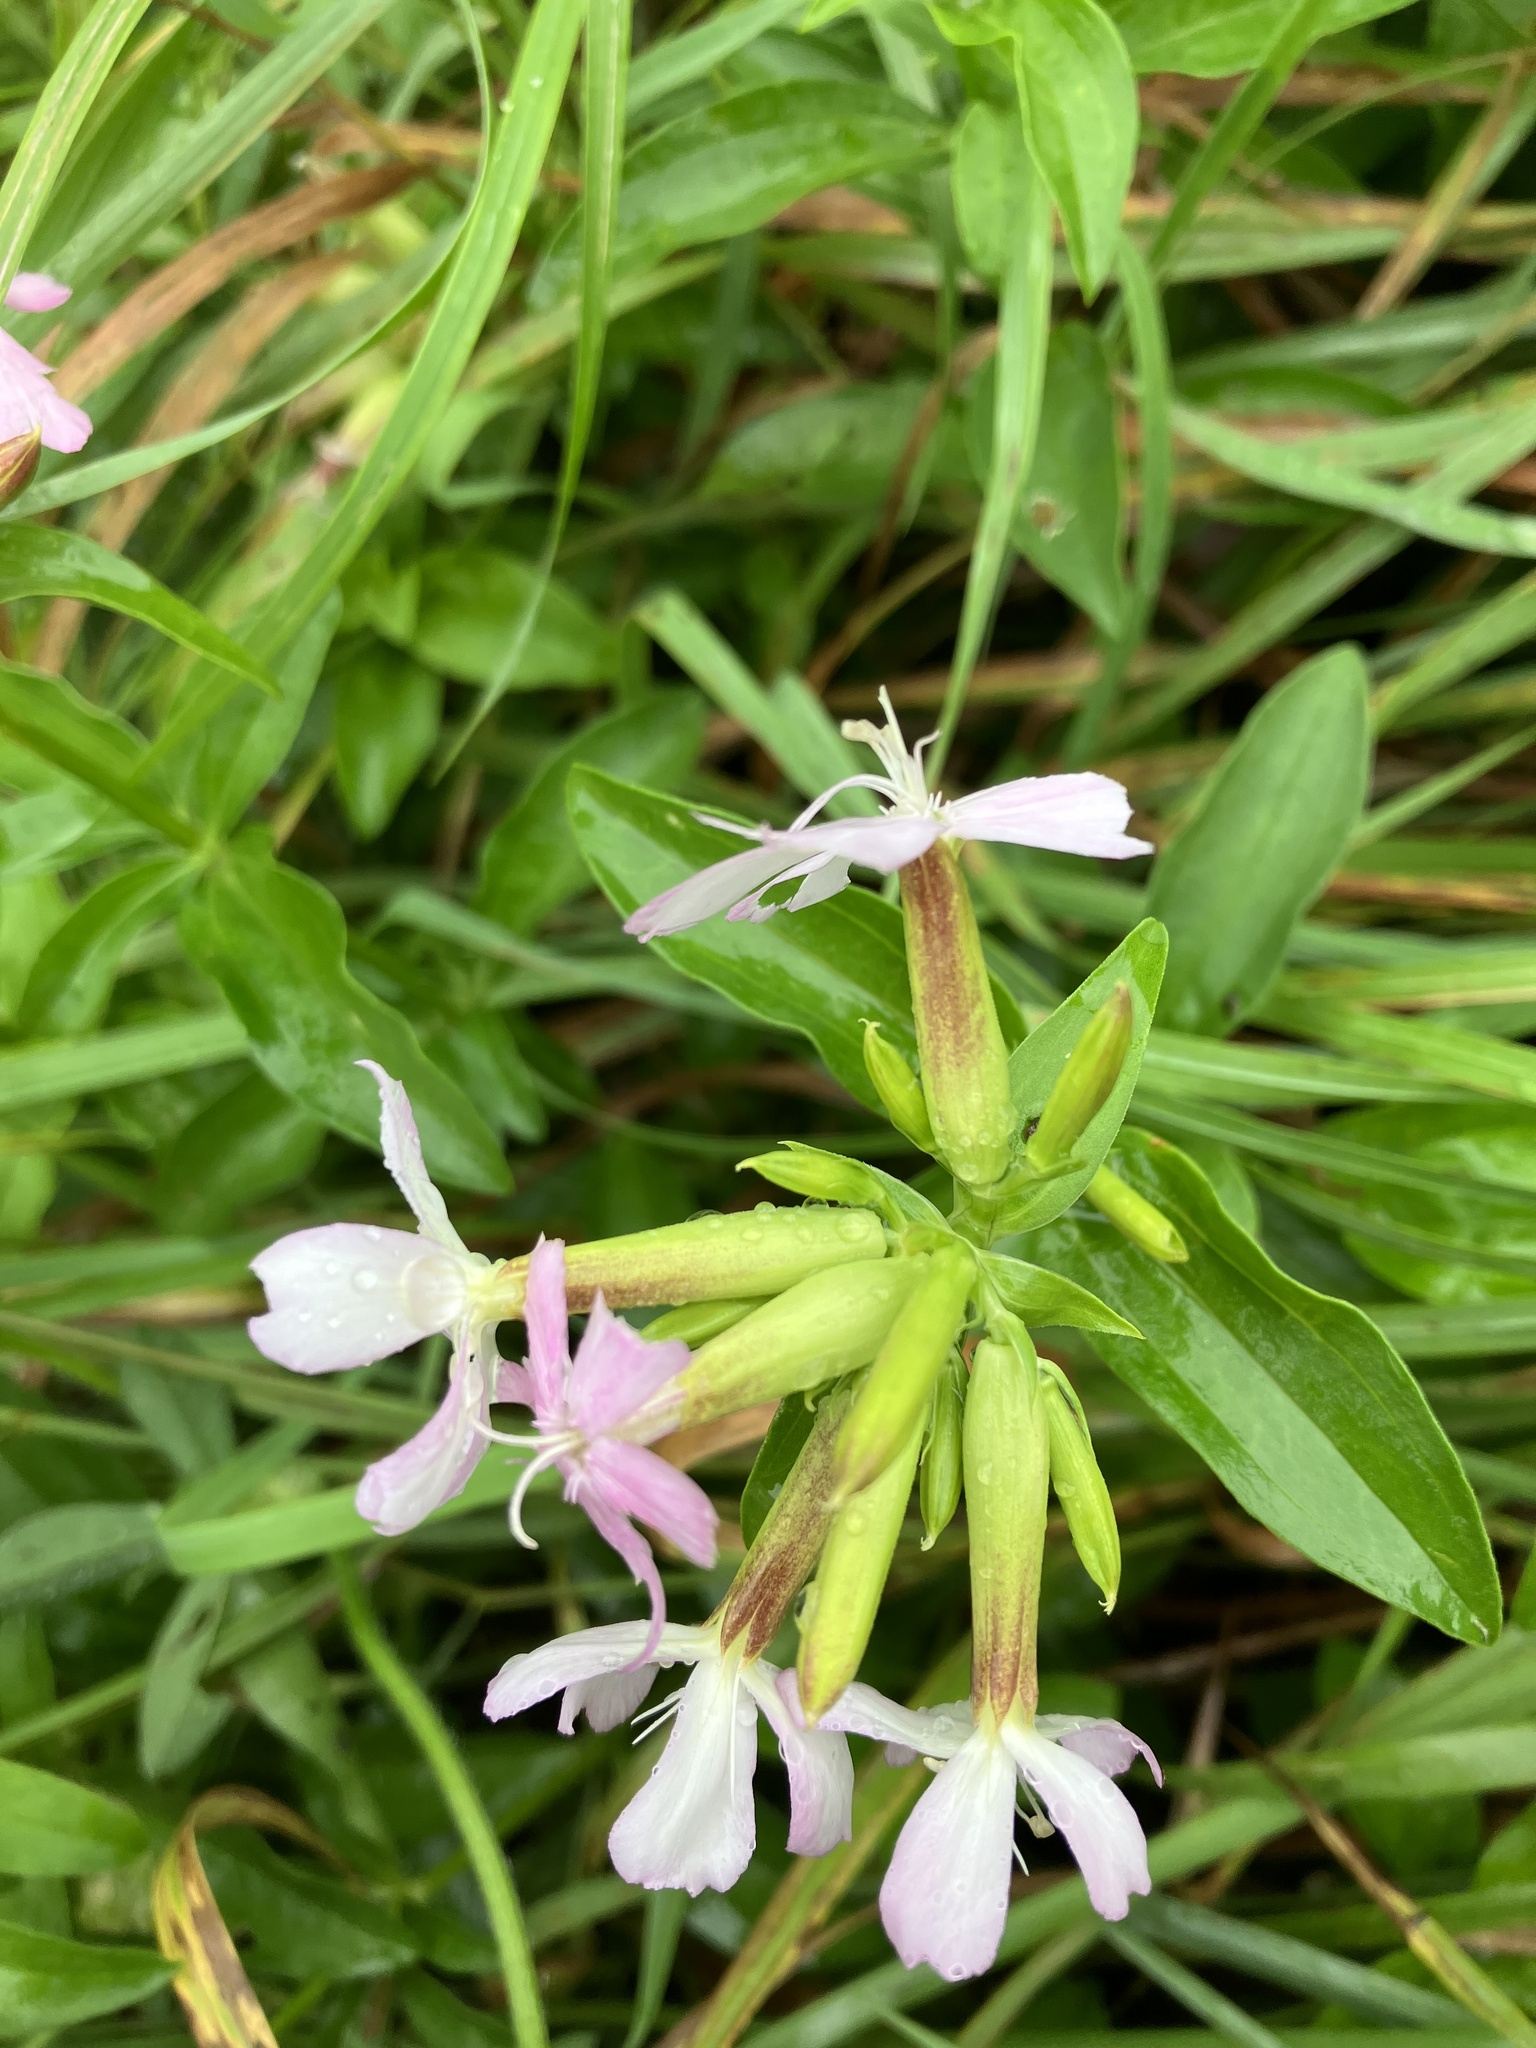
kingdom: Plantae
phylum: Tracheophyta
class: Magnoliopsida
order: Caryophyllales
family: Caryophyllaceae
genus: Saponaria
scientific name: Saponaria officinalis
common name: Soapwort
